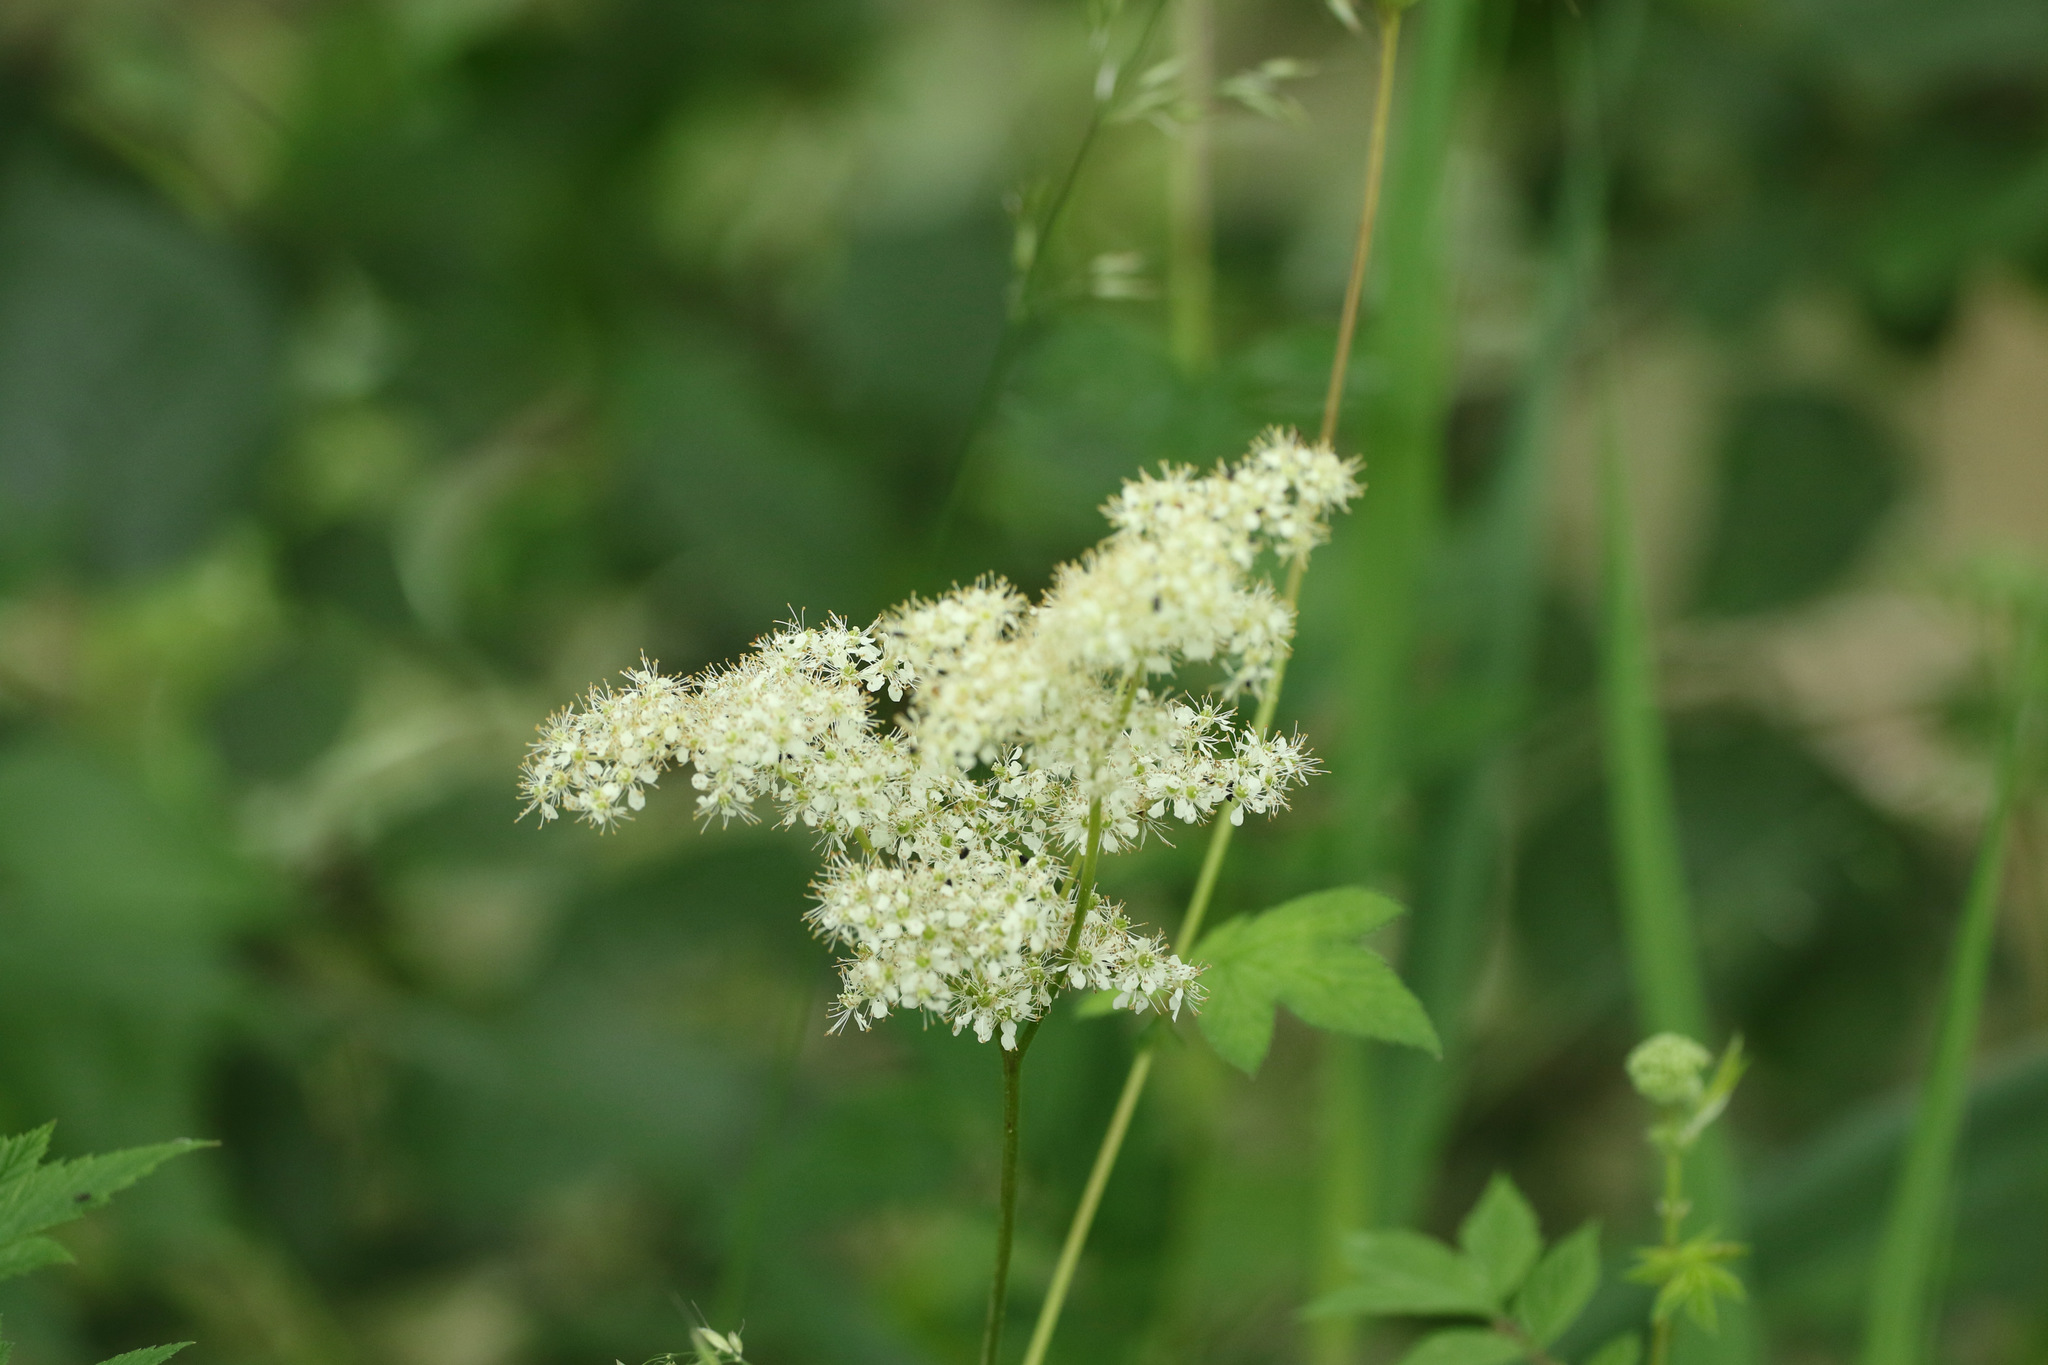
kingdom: Plantae
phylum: Tracheophyta
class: Magnoliopsida
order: Rosales
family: Rosaceae
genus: Filipendula
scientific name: Filipendula ulmaria
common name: Meadowsweet
